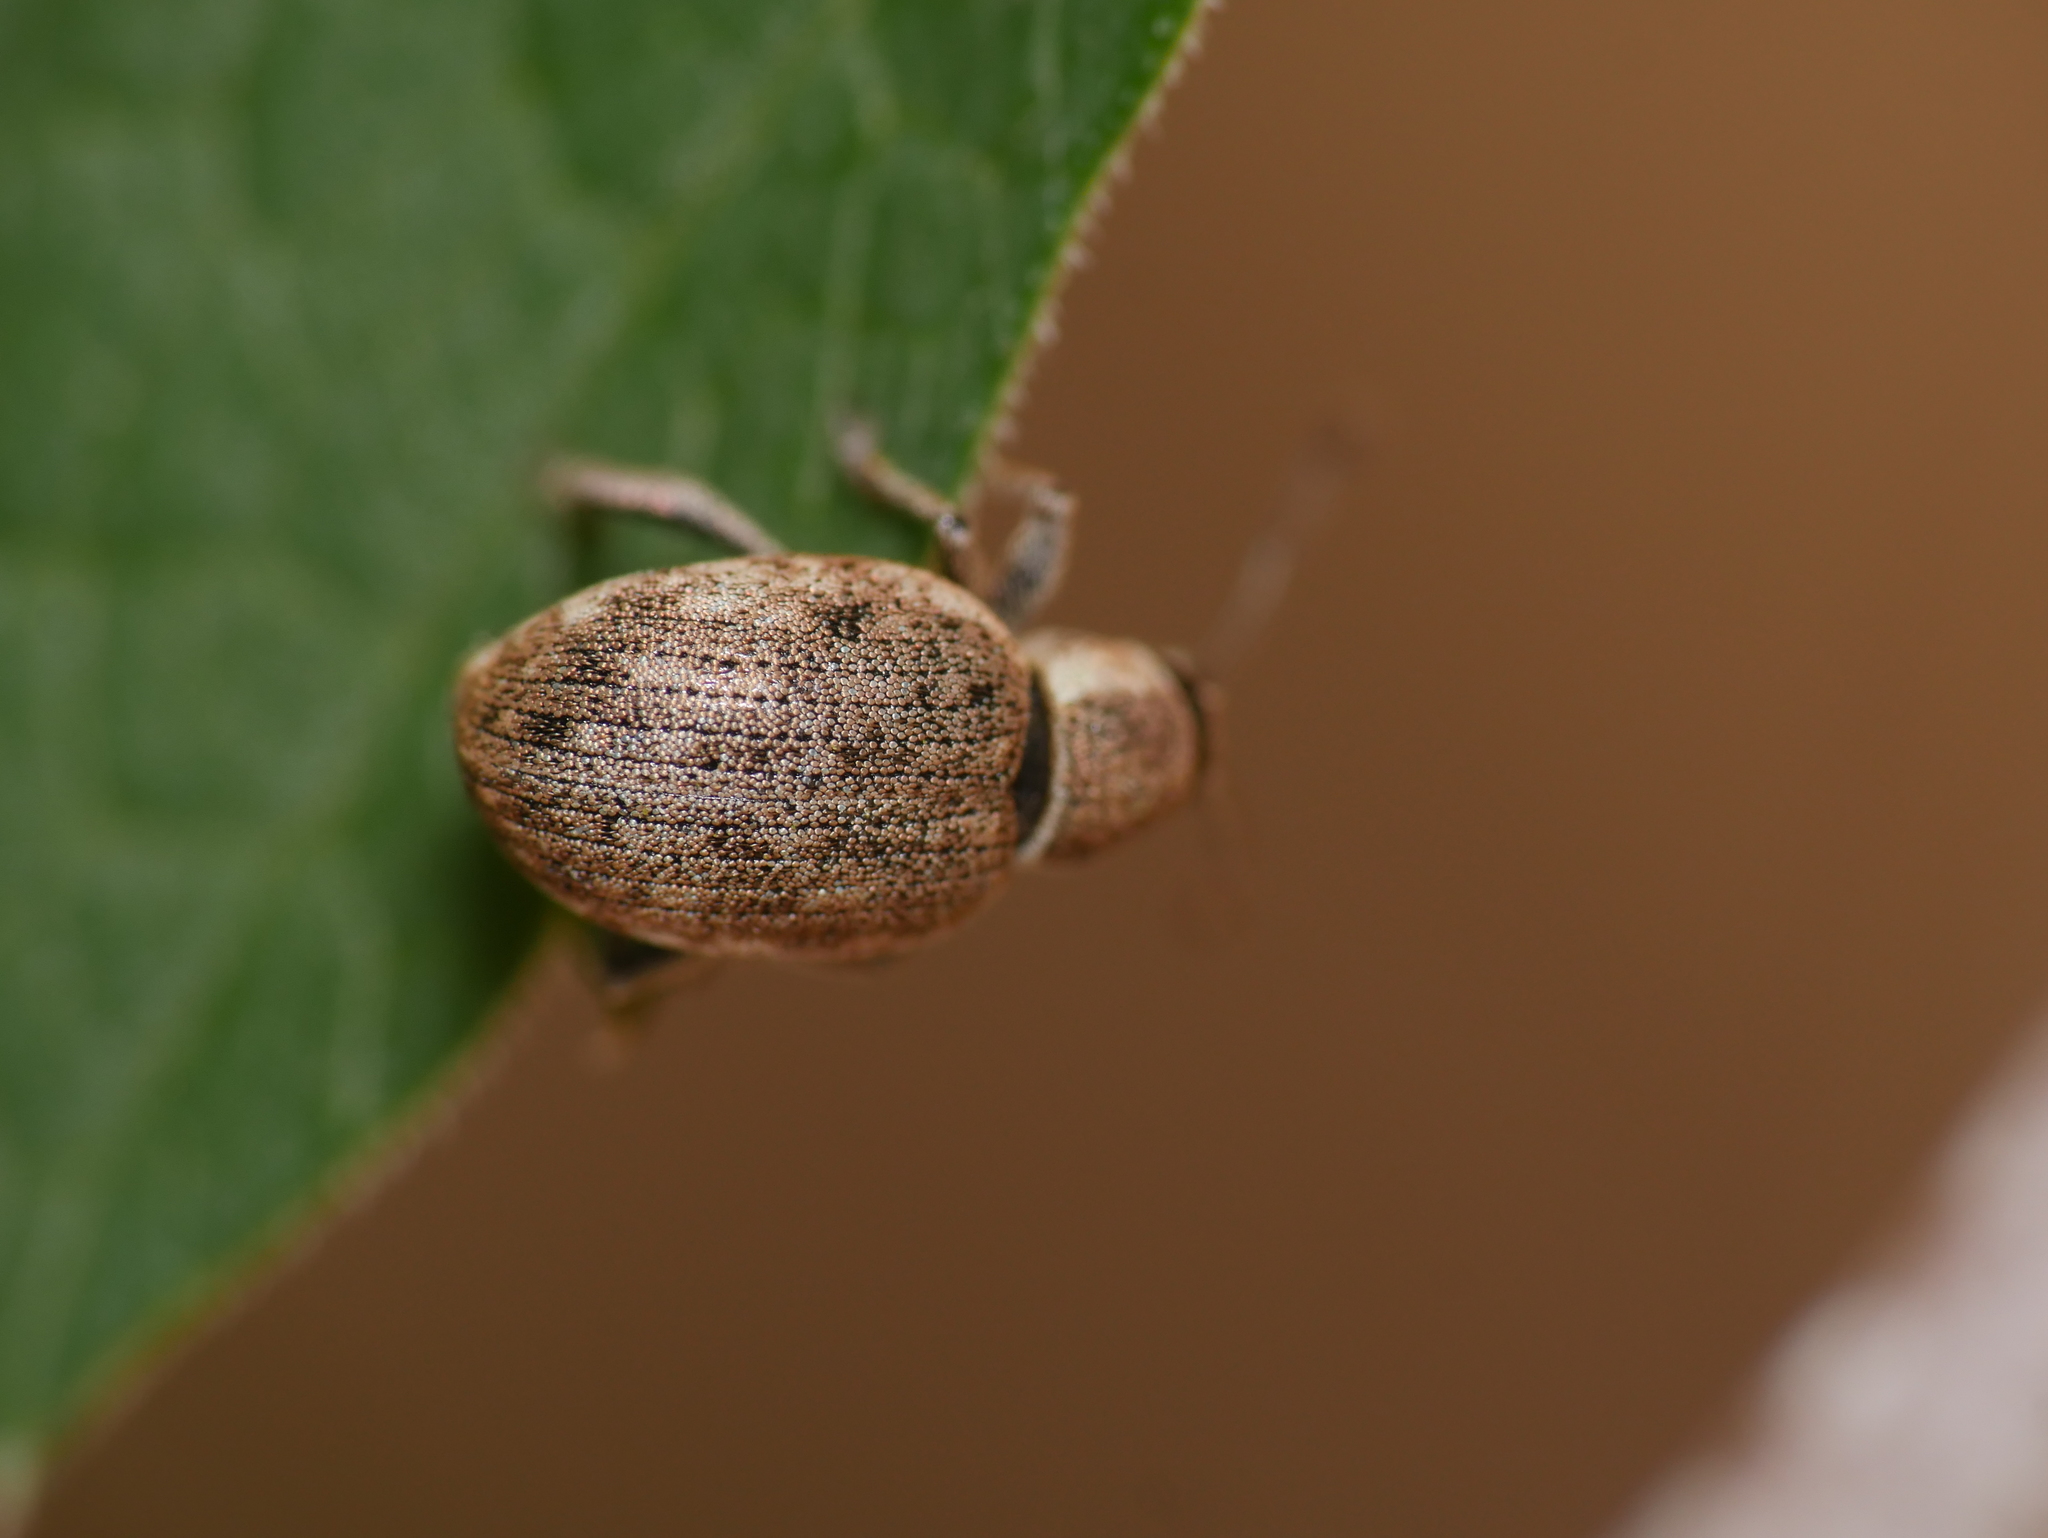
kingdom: Animalia
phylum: Arthropoda
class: Insecta
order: Coleoptera
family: Curculionidae
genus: Peritelus
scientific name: Peritelus sphaeroides
